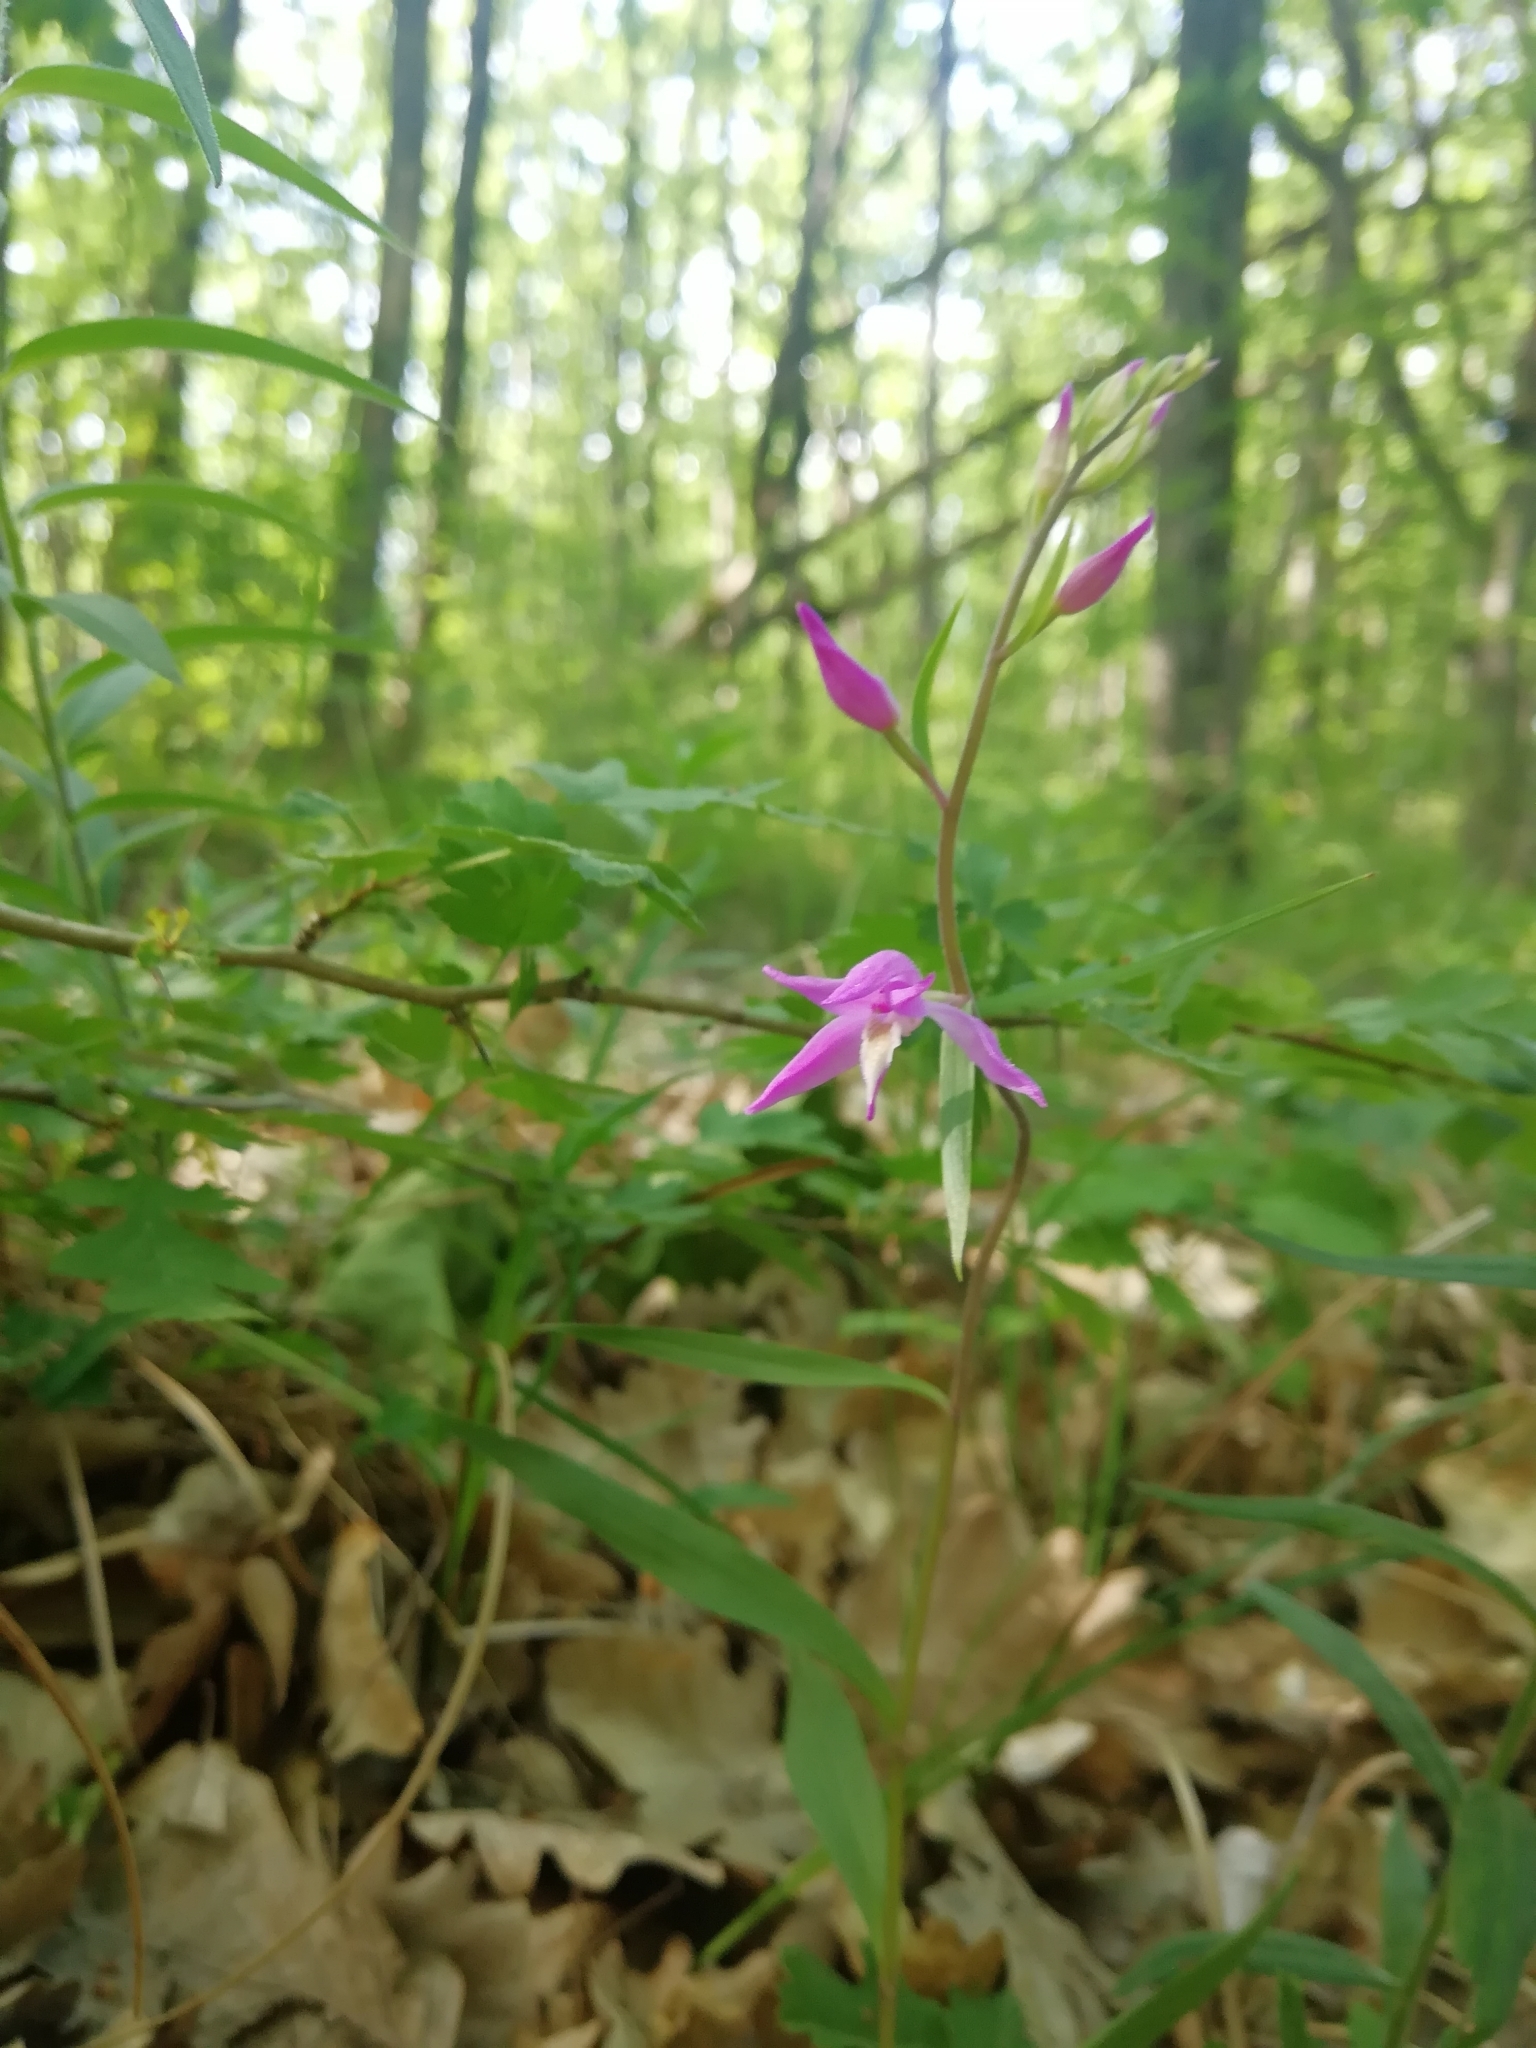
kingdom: Plantae
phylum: Tracheophyta
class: Liliopsida
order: Asparagales
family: Orchidaceae
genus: Cephalanthera
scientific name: Cephalanthera rubra
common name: Red helleborine
